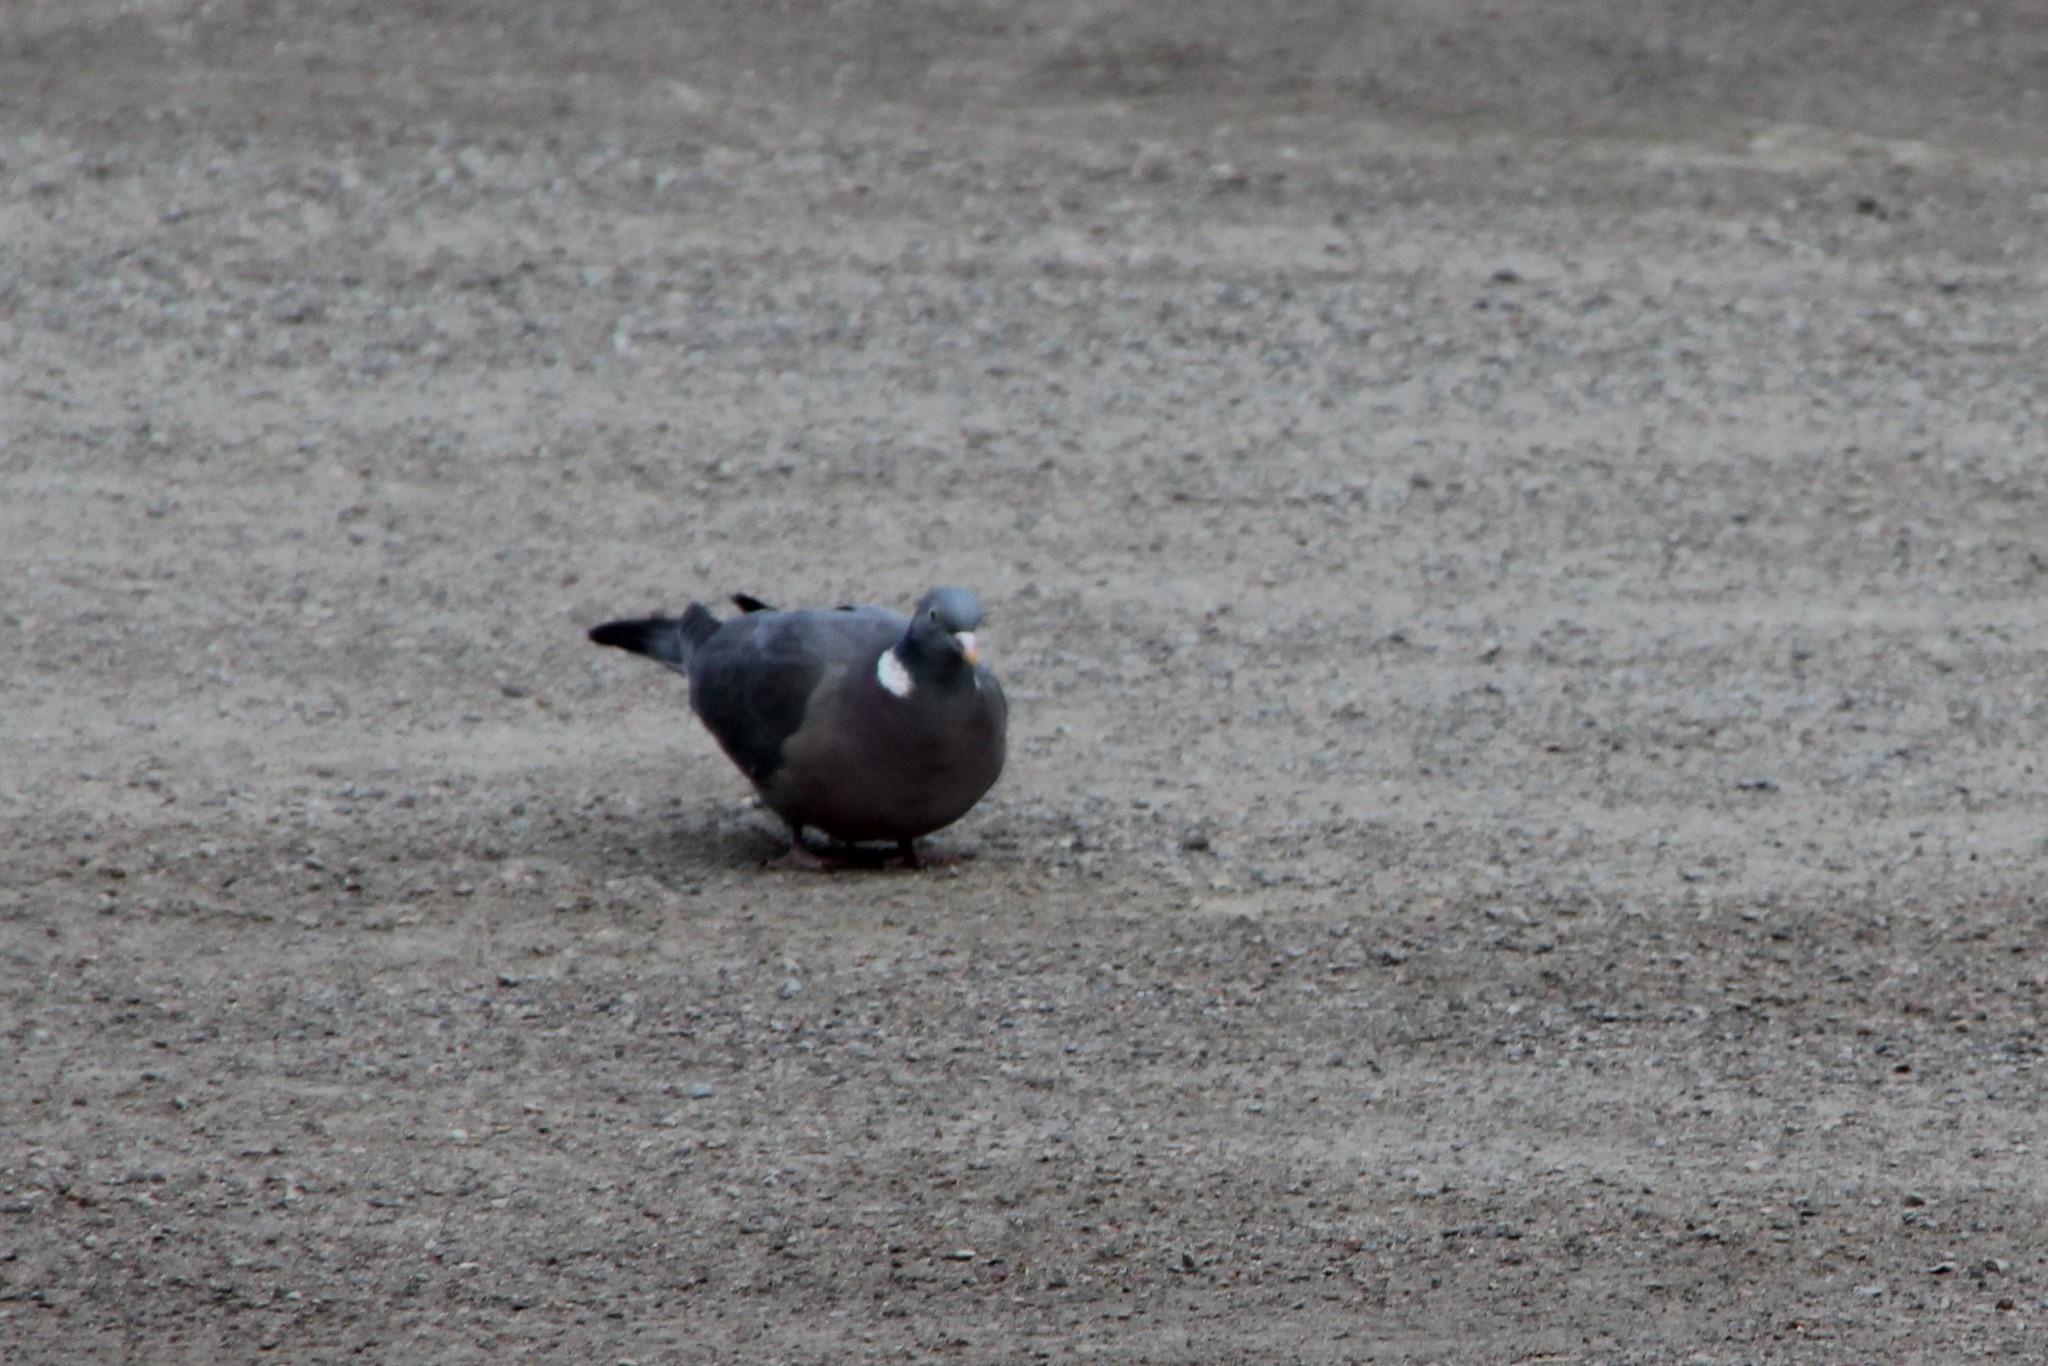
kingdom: Animalia
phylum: Chordata
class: Aves
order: Columbiformes
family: Columbidae
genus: Columba
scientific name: Columba palumbus
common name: Common wood pigeon
